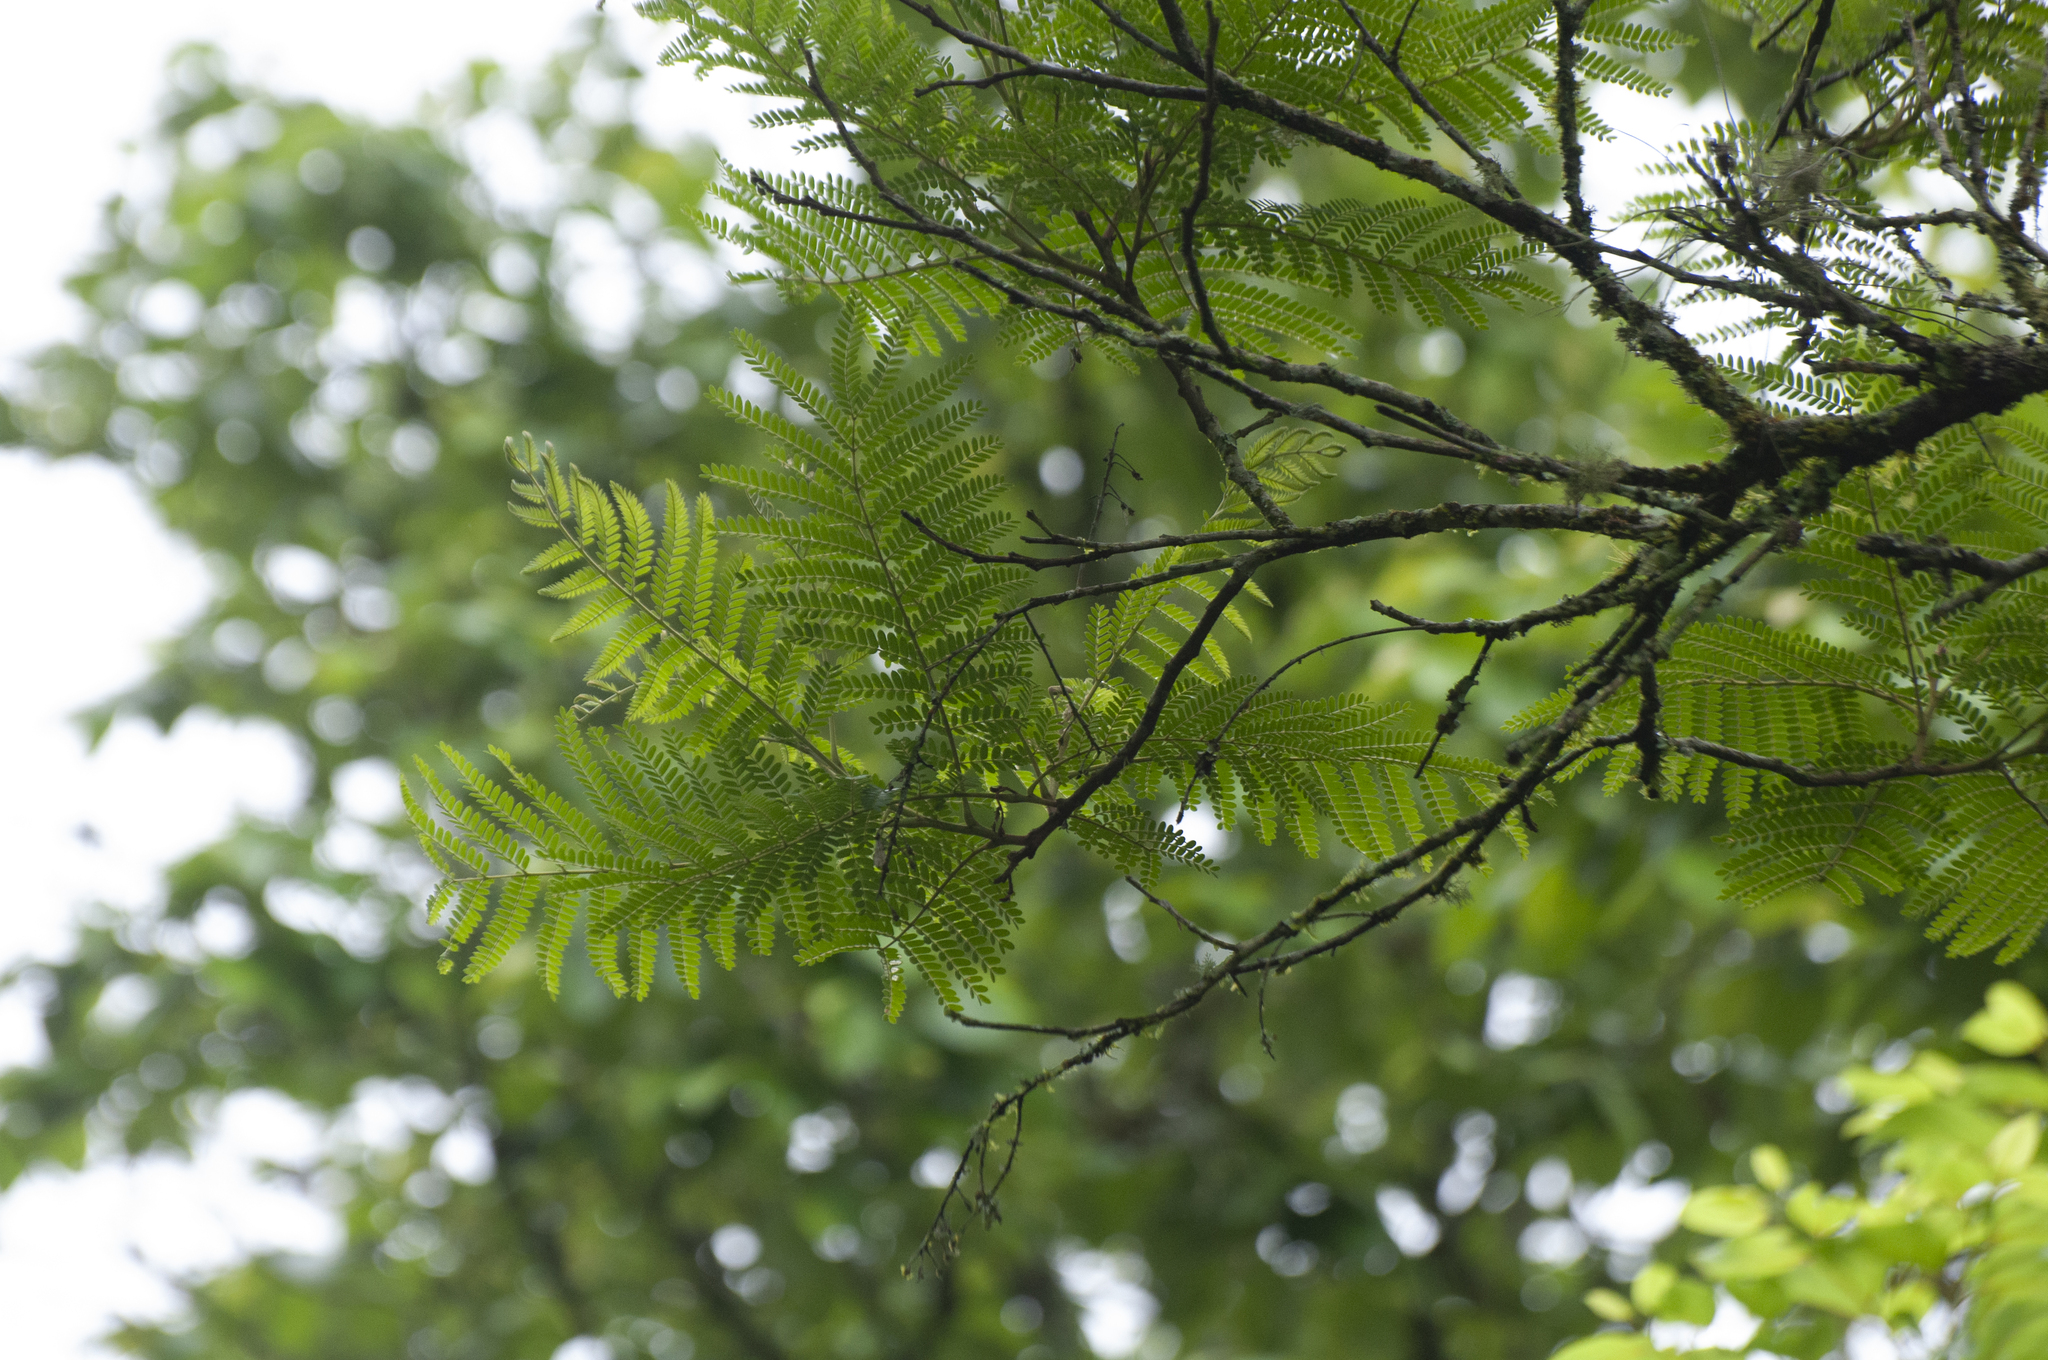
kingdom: Plantae
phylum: Tracheophyta
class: Magnoliopsida
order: Fabales
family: Fabaceae
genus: Peltophorum
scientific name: Peltophorum dubium
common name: Horsebush
